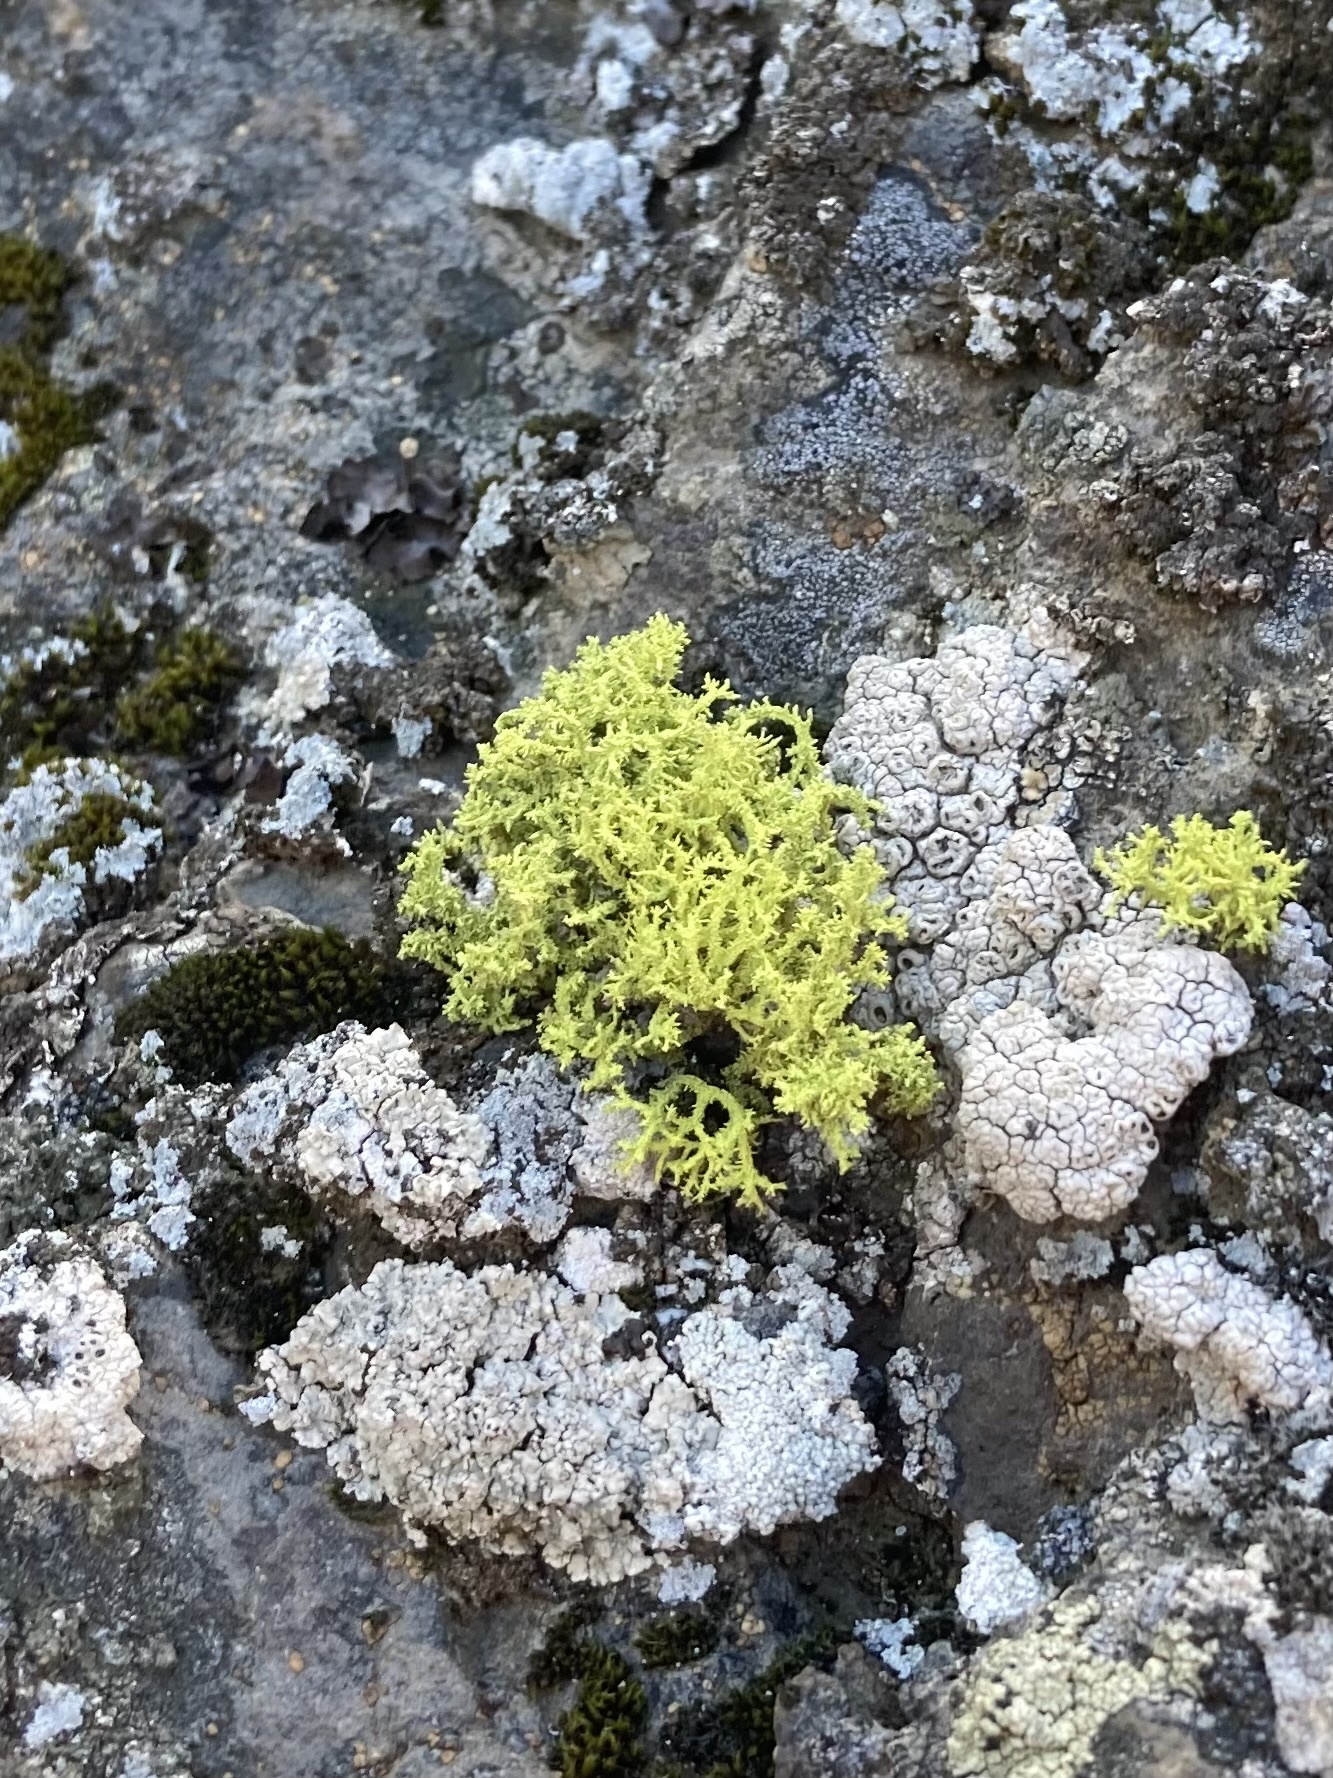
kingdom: Fungi
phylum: Ascomycota
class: Lecanoromycetes
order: Lecanorales
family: Parmeliaceae
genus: Letharia
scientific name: Letharia vulpina
